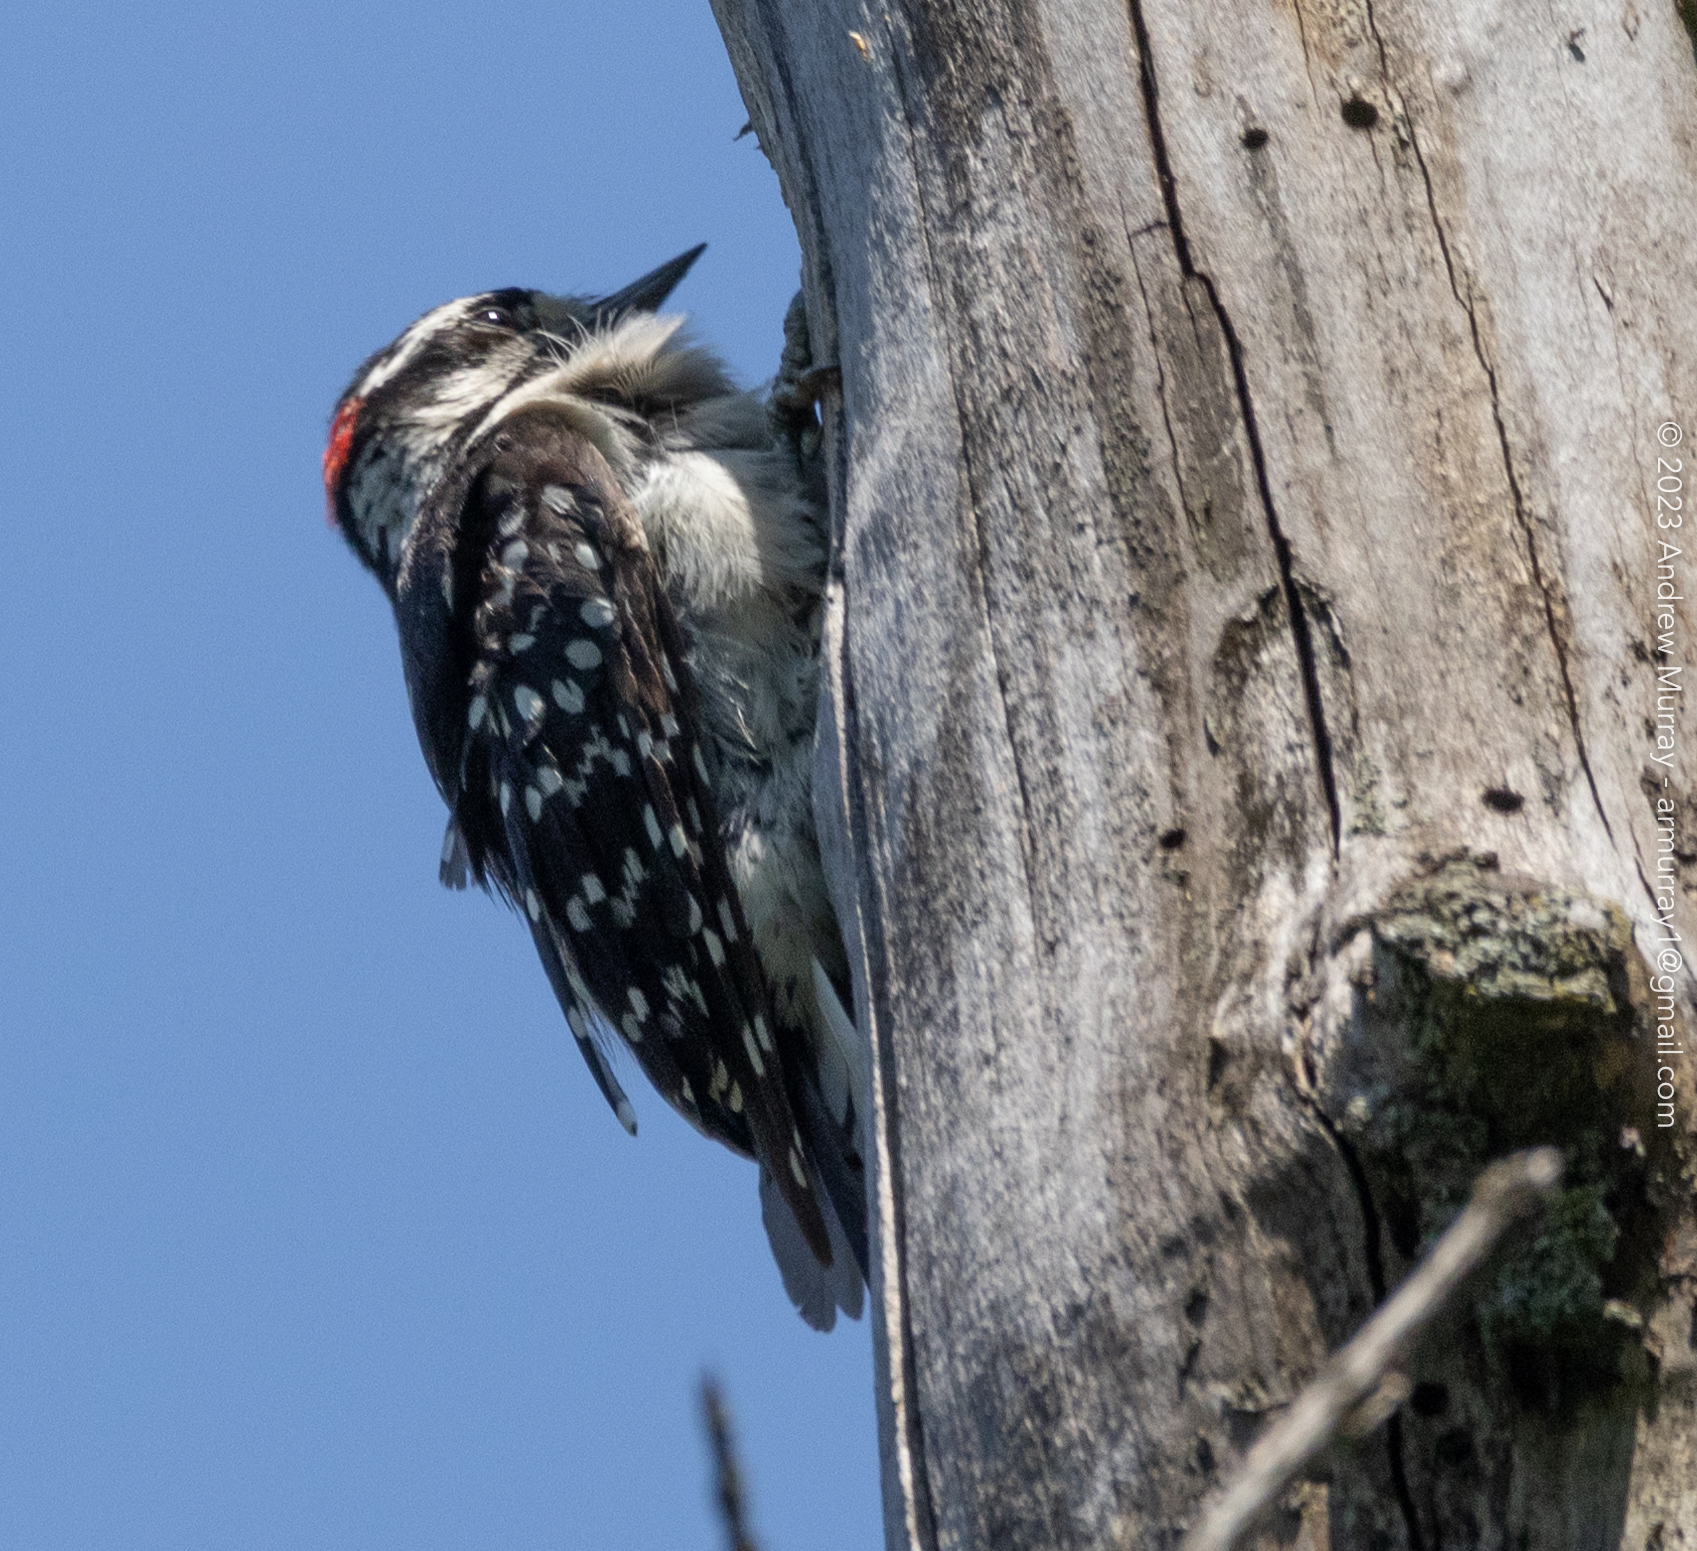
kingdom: Animalia
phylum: Chordata
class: Aves
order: Piciformes
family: Picidae
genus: Dryobates
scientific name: Dryobates pubescens
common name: Downy woodpecker
